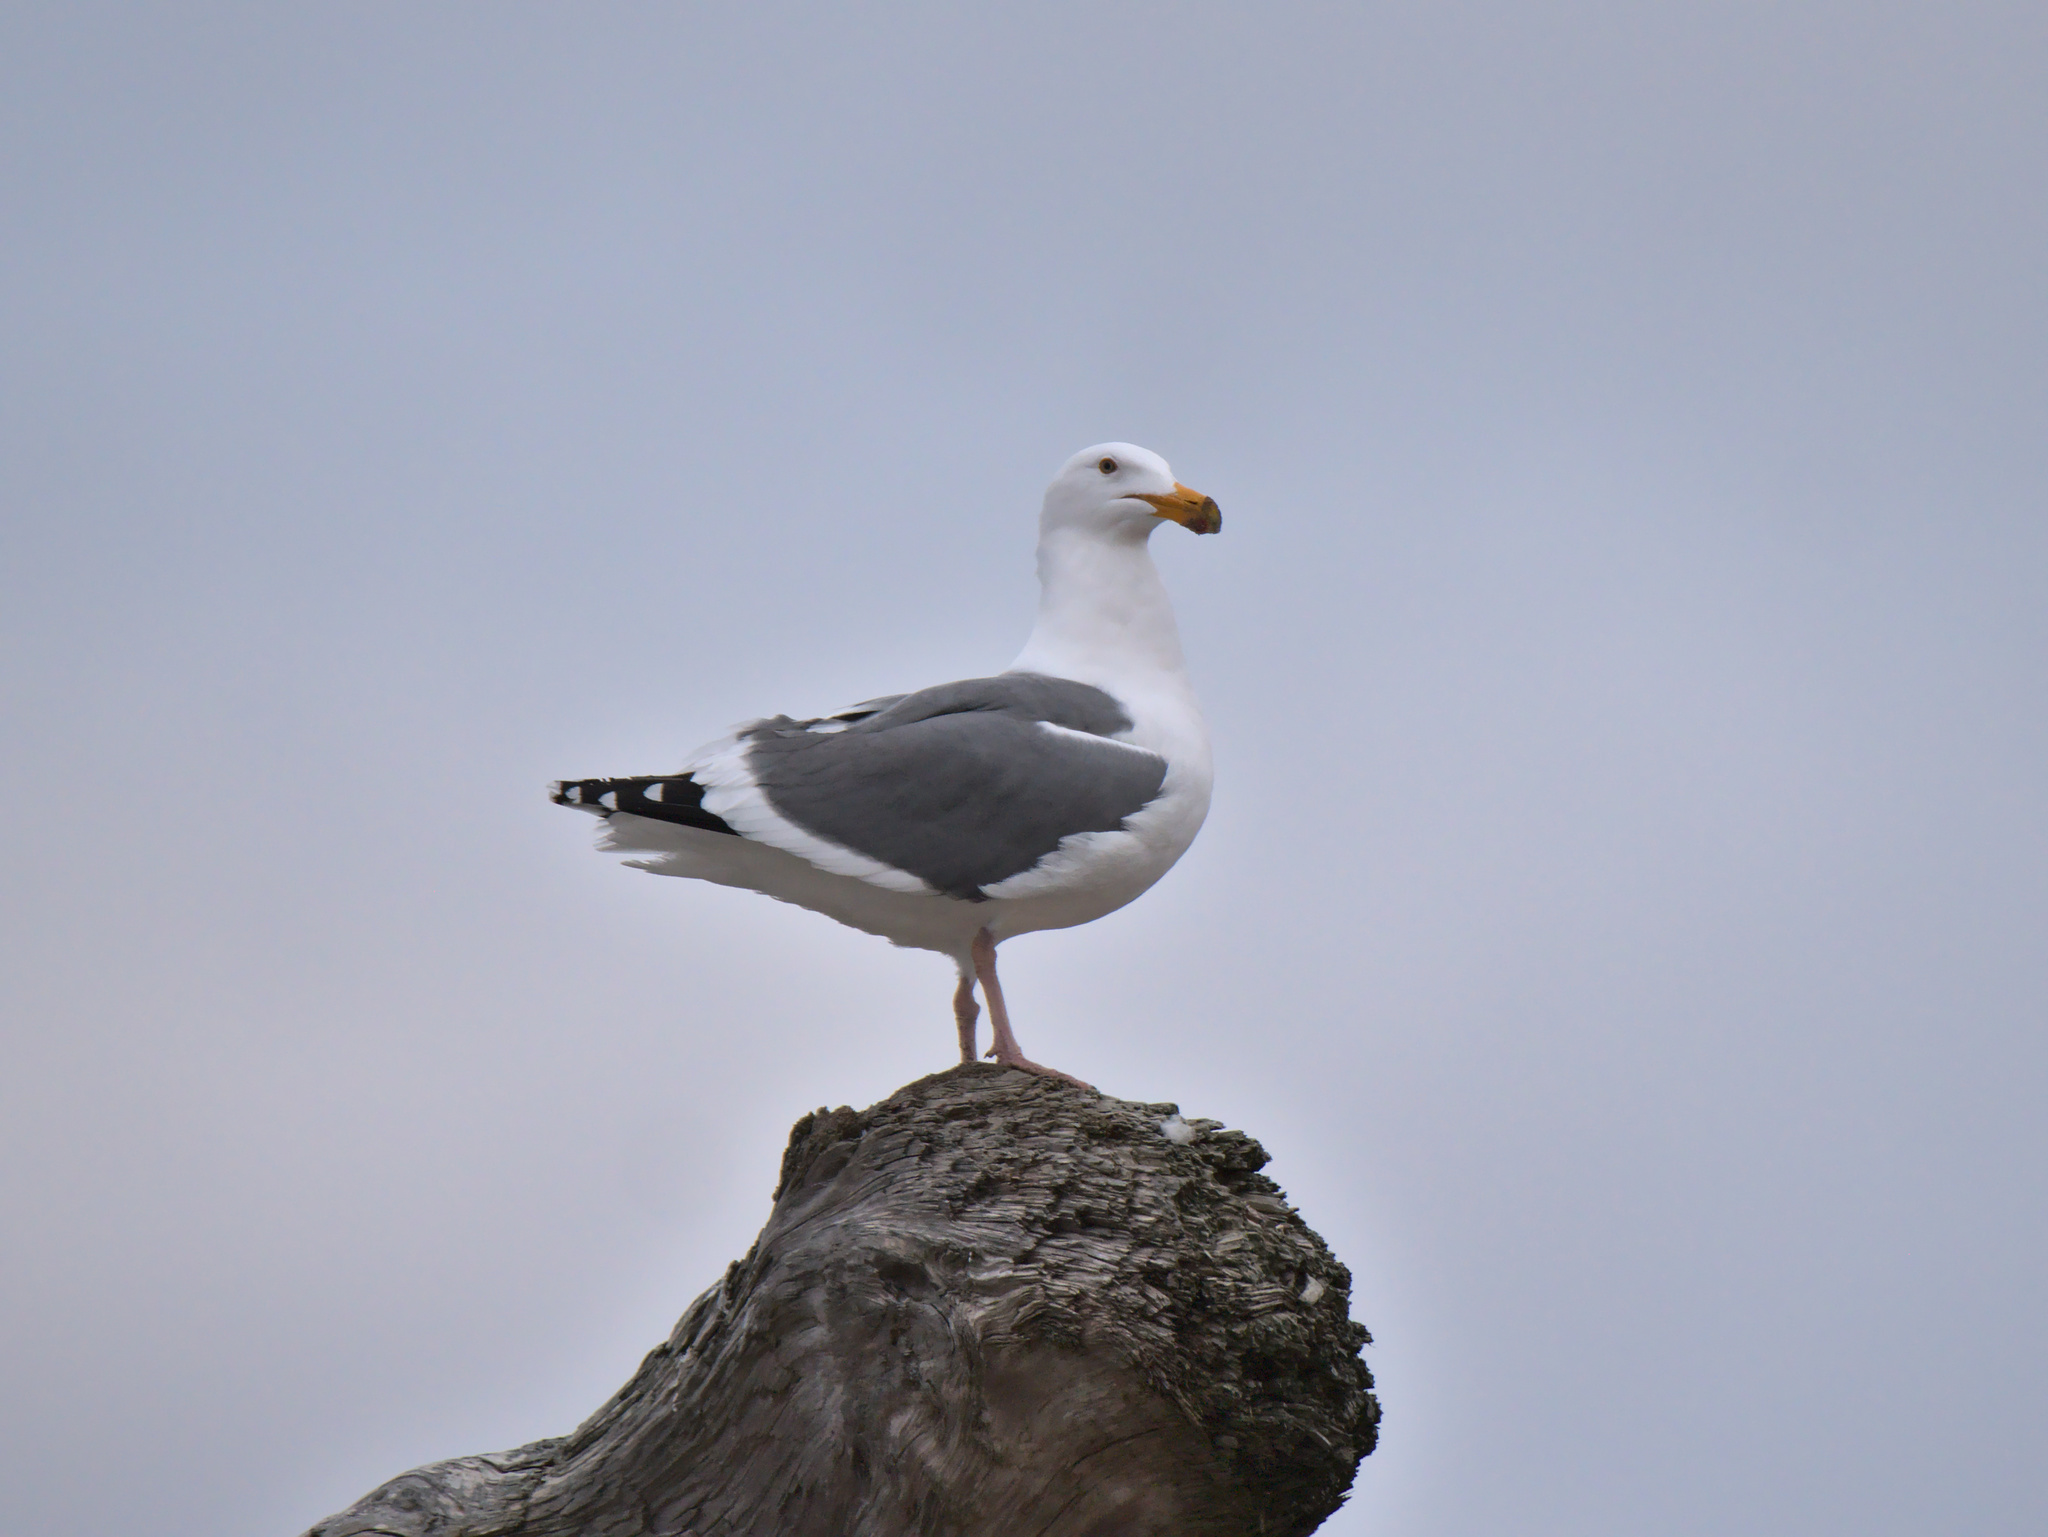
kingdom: Animalia
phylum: Chordata
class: Aves
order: Charadriiformes
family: Laridae
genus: Larus
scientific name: Larus occidentalis
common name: Western gull
